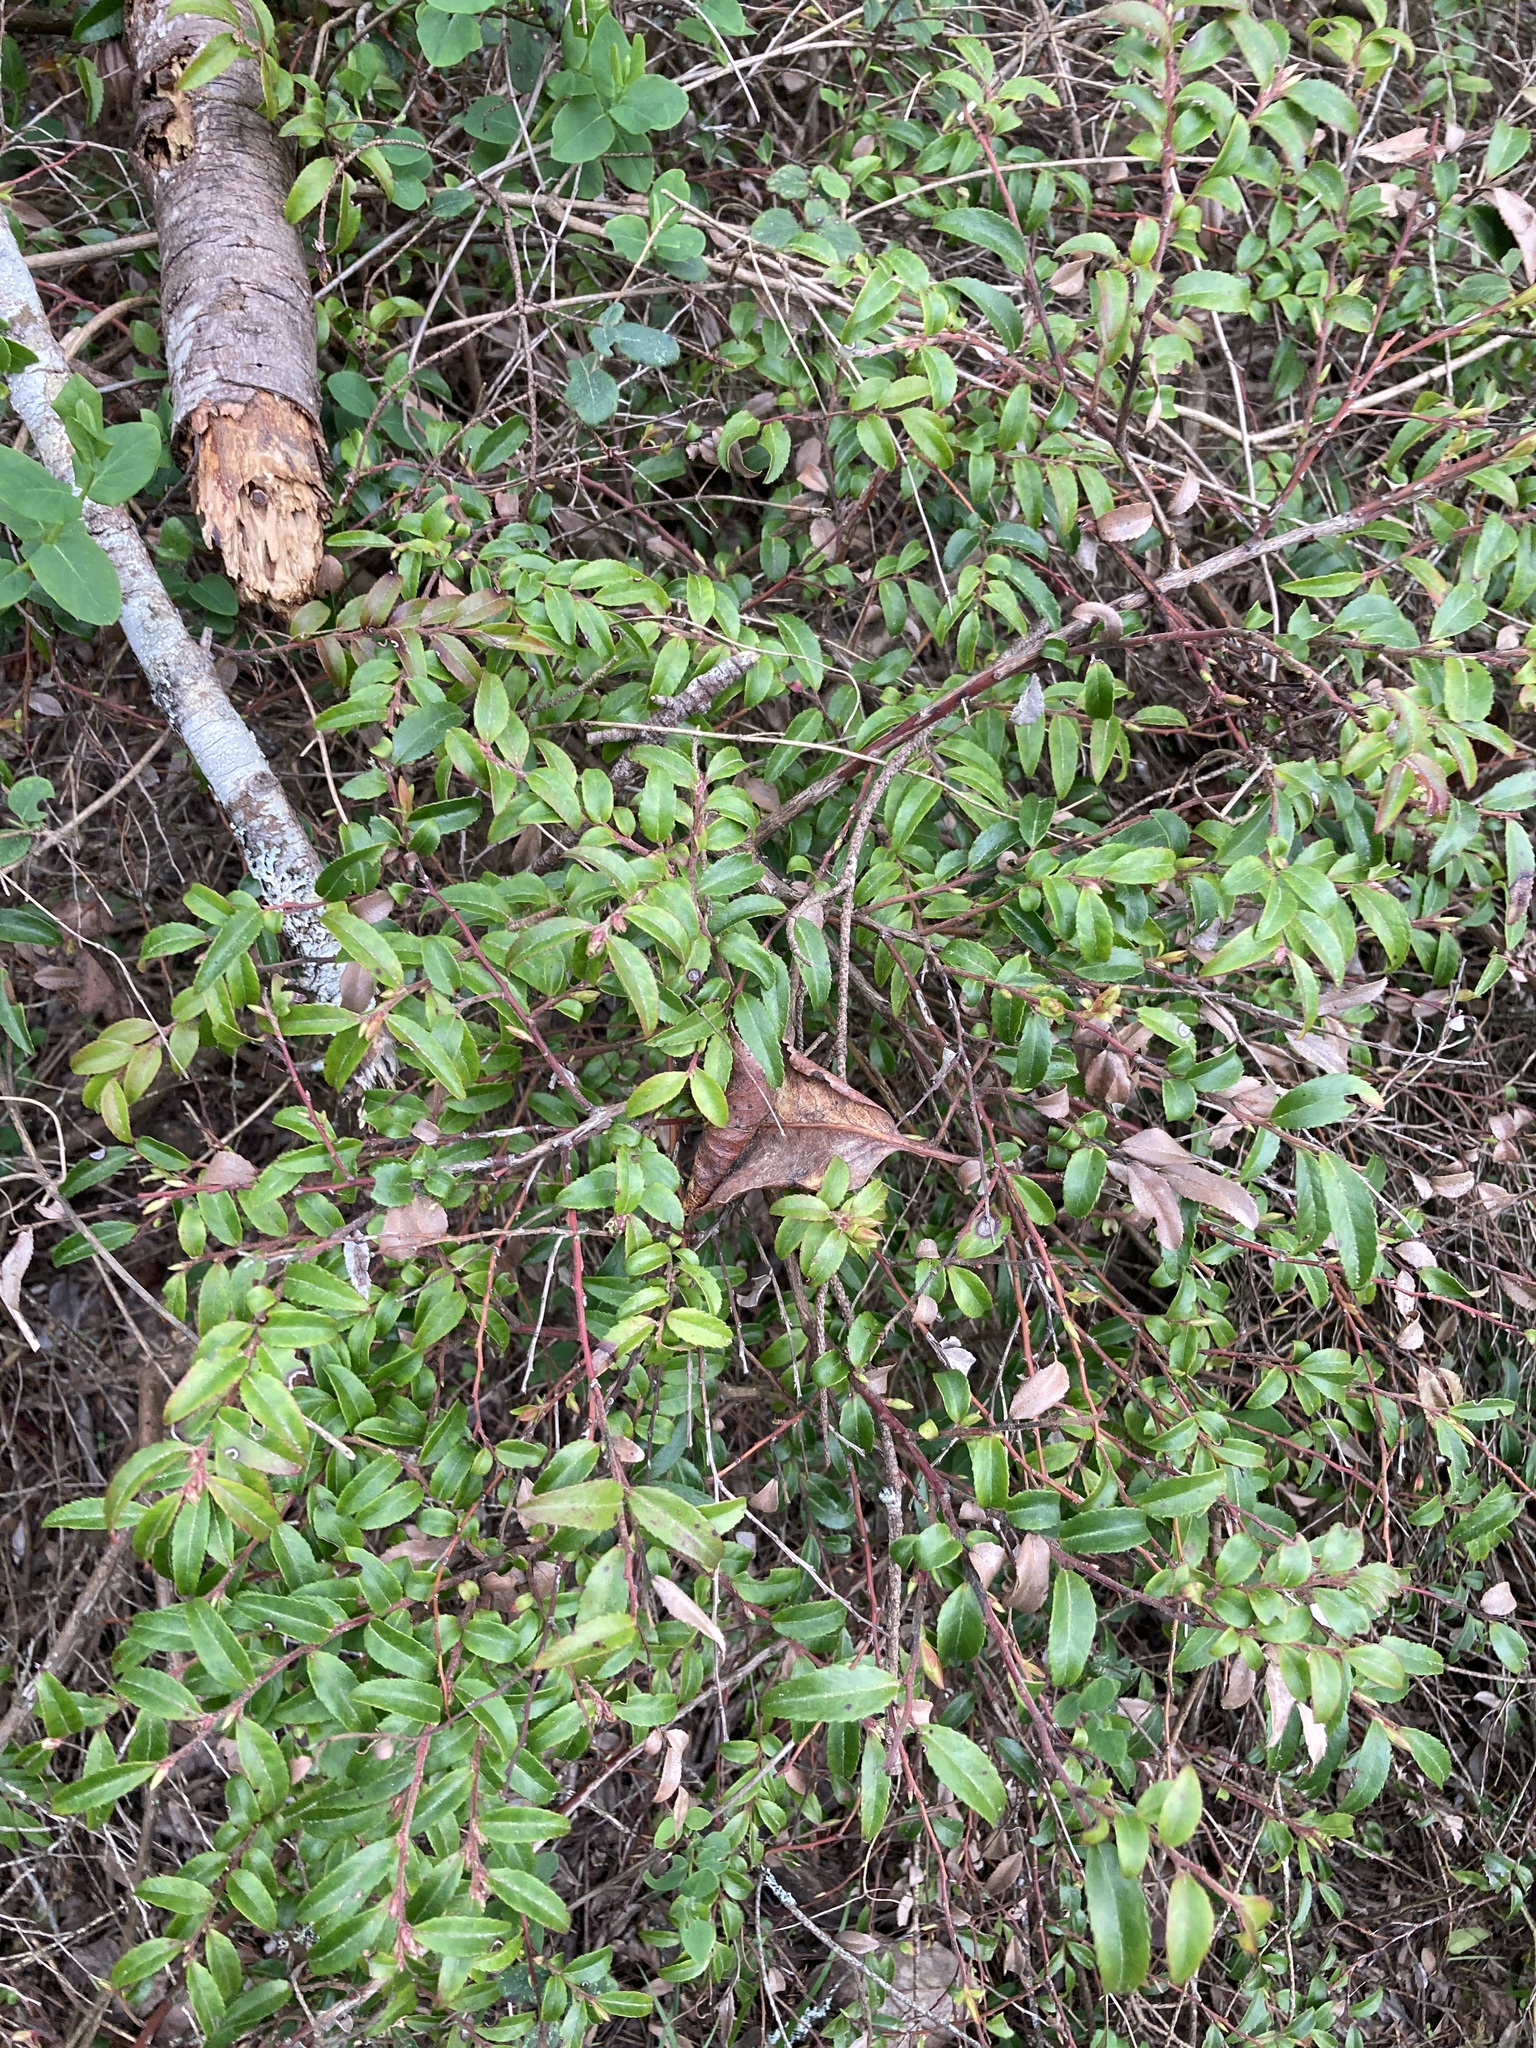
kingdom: Plantae
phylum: Tracheophyta
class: Magnoliopsida
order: Ericales
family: Ericaceae
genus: Vaccinium
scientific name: Vaccinium ovatum
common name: California-huckleberry
